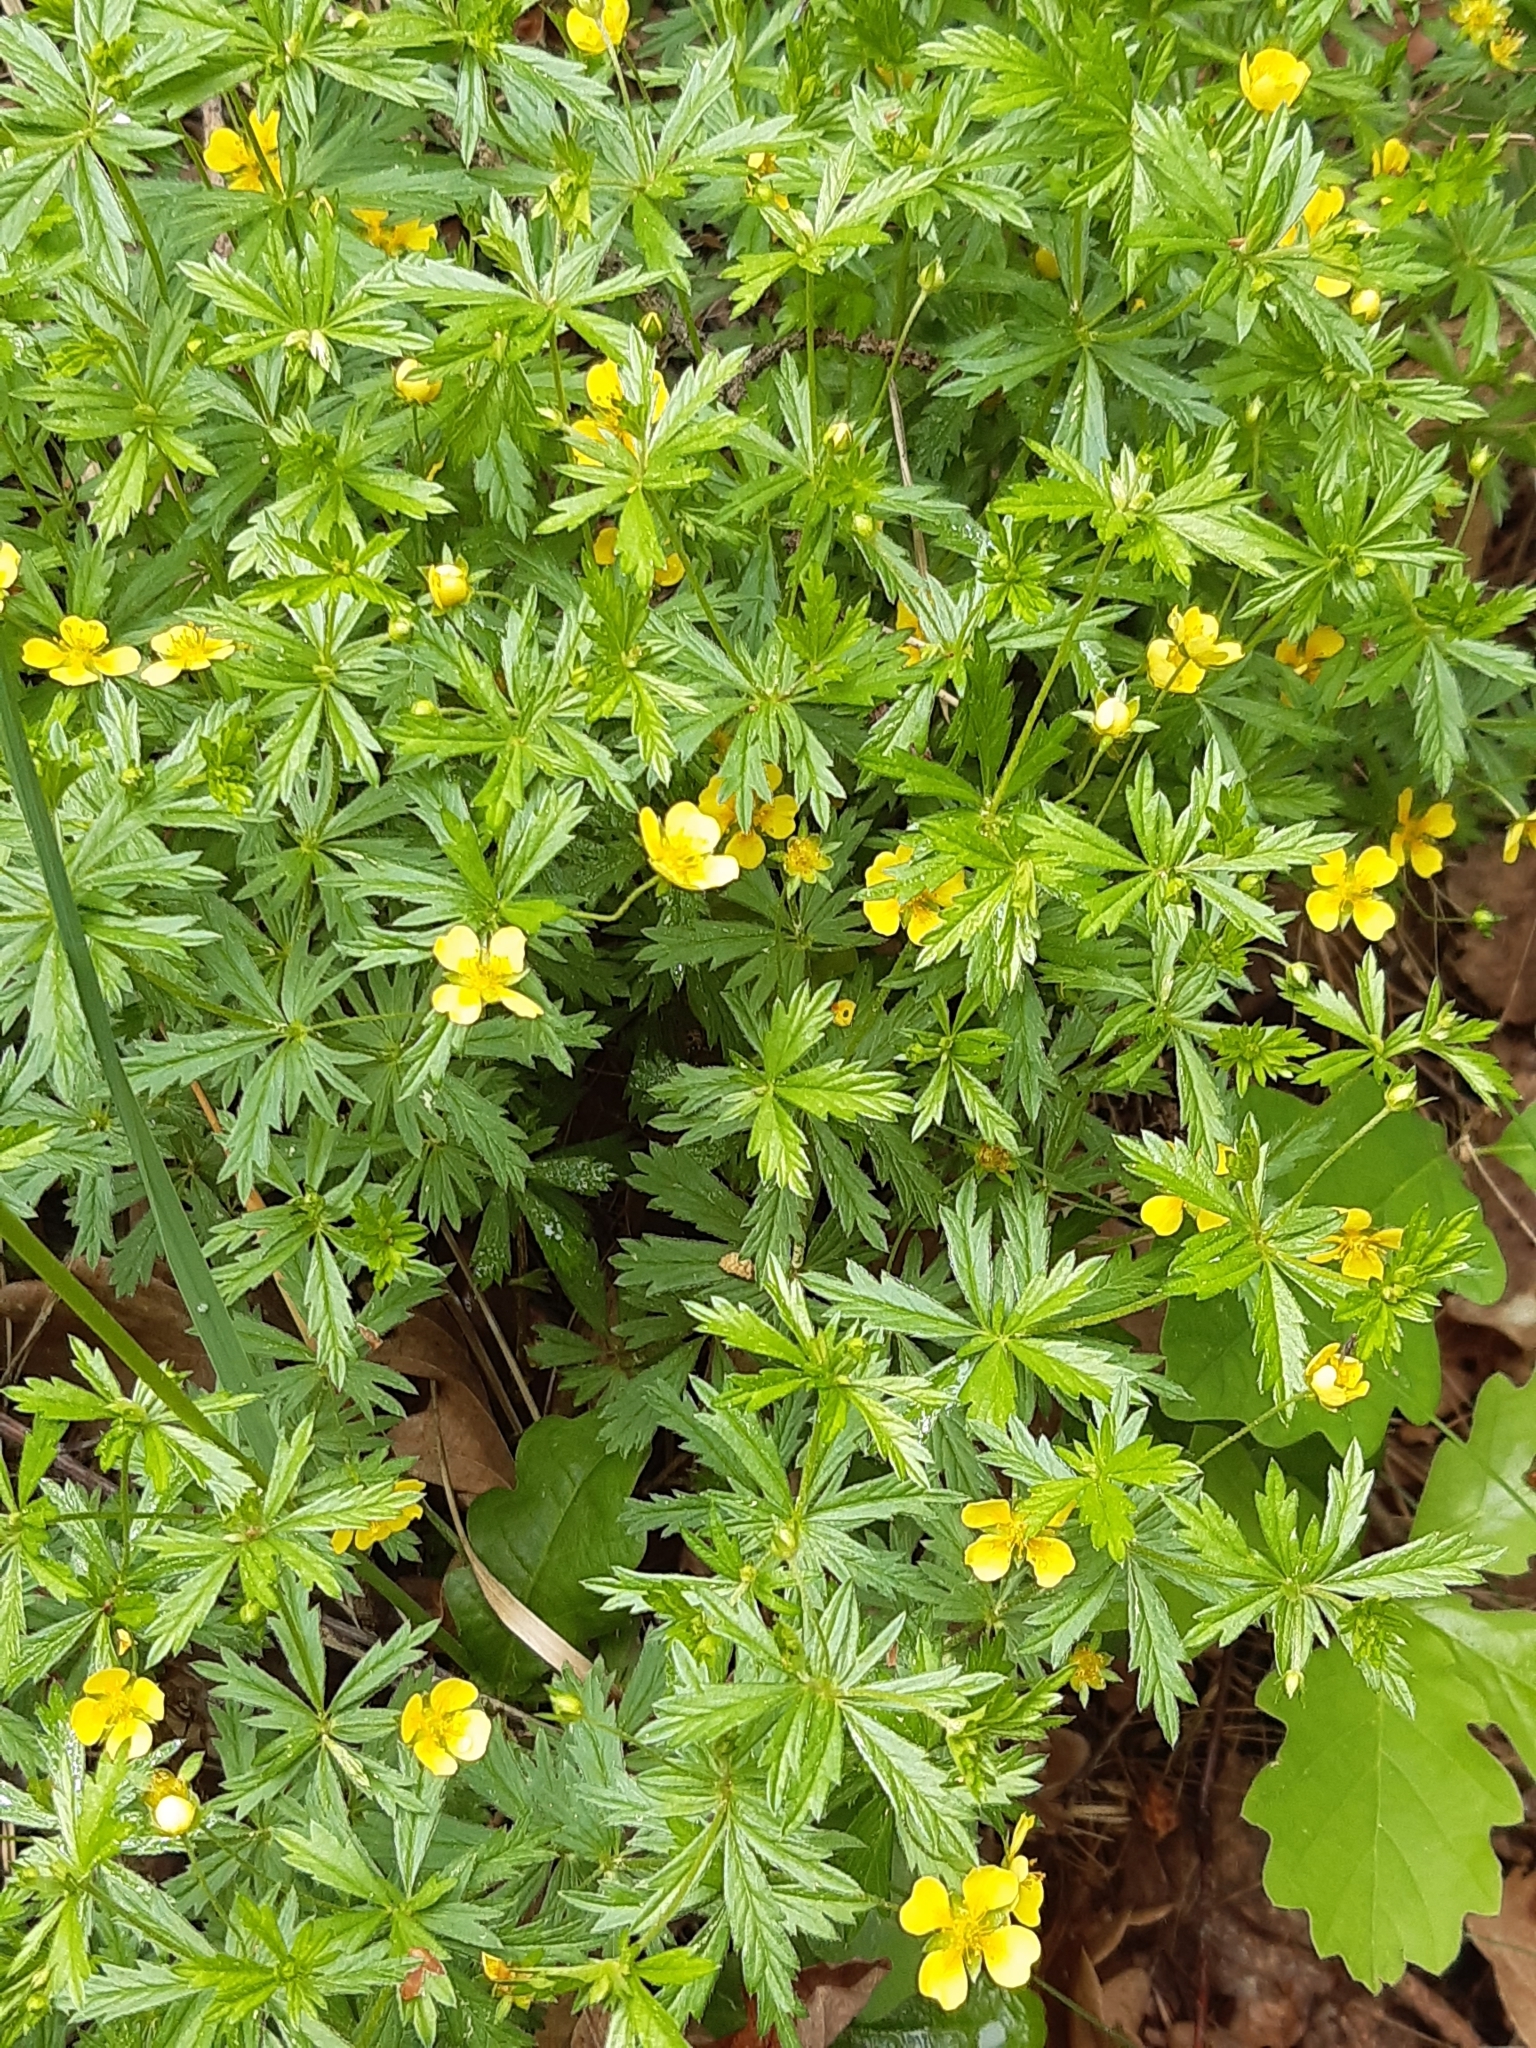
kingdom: Plantae
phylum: Tracheophyta
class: Magnoliopsida
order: Rosales
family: Rosaceae
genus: Potentilla
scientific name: Potentilla erecta
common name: Tormentil
